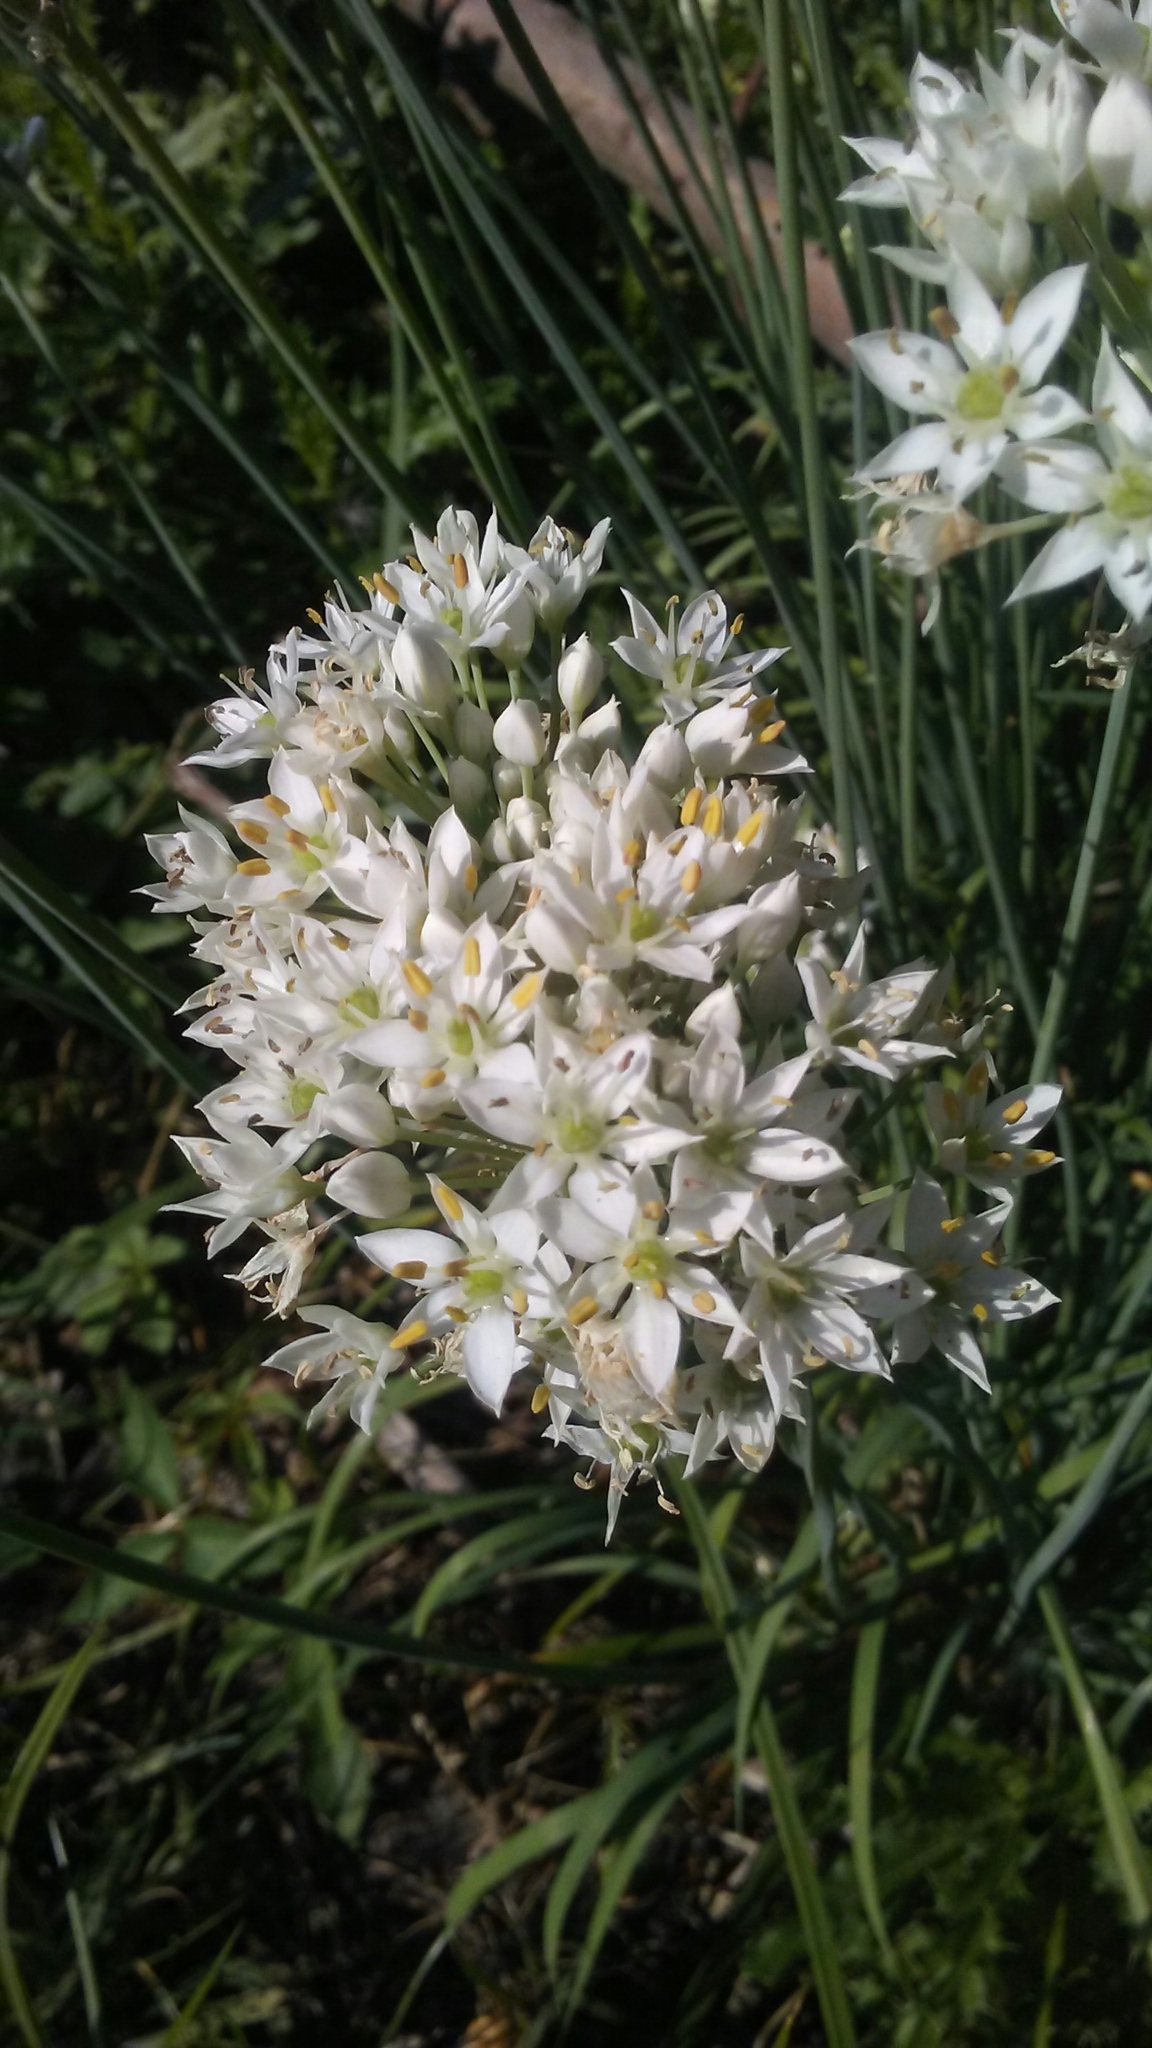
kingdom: Plantae
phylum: Tracheophyta
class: Liliopsida
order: Asparagales
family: Amaryllidaceae
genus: Allium
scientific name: Allium tuberosum
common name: Chinese chives
